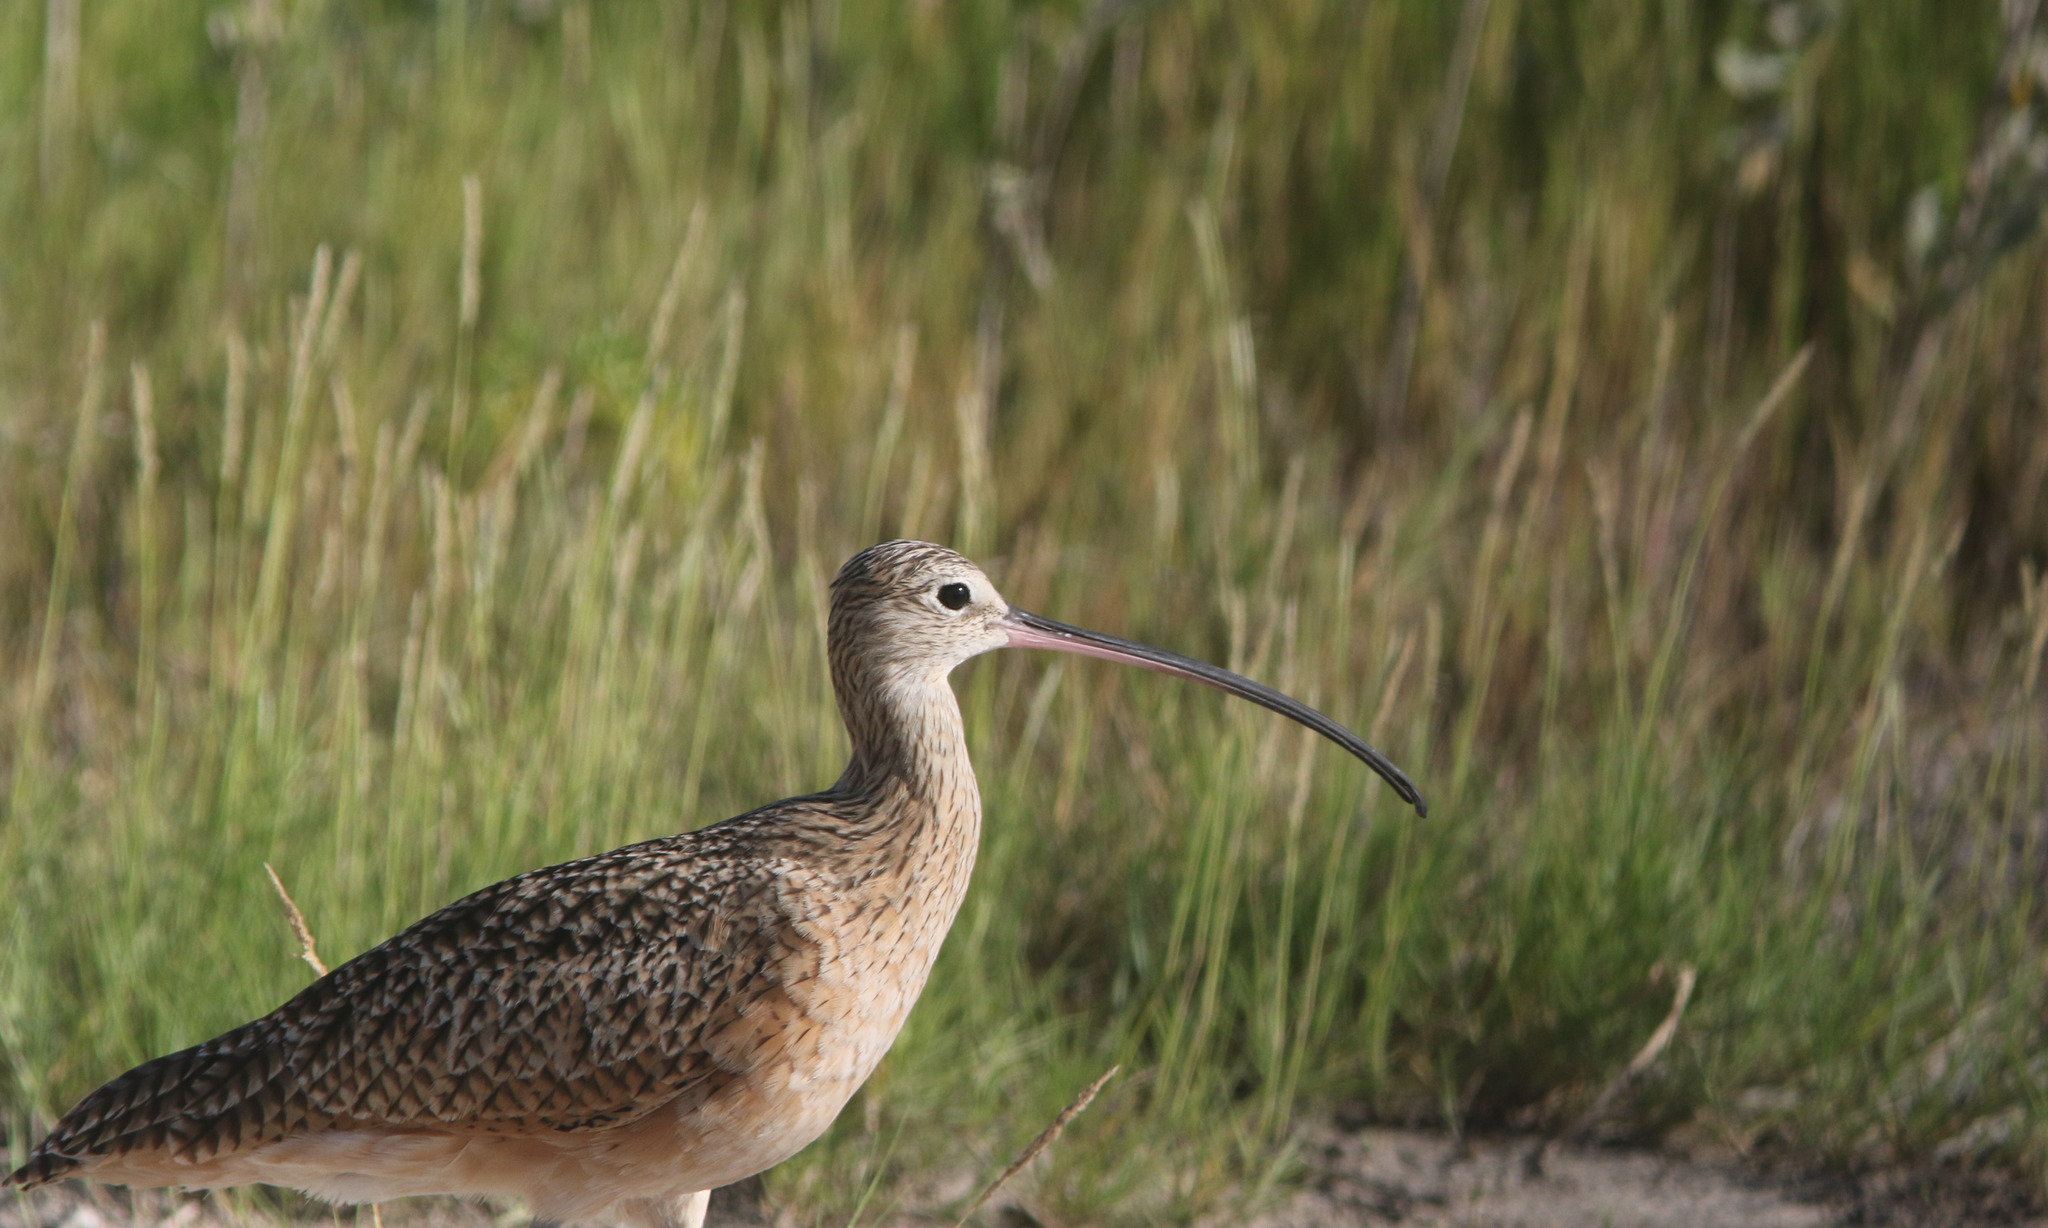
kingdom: Animalia
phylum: Chordata
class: Aves
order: Charadriiformes
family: Scolopacidae
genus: Numenius
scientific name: Numenius americanus
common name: Long-billed curlew
